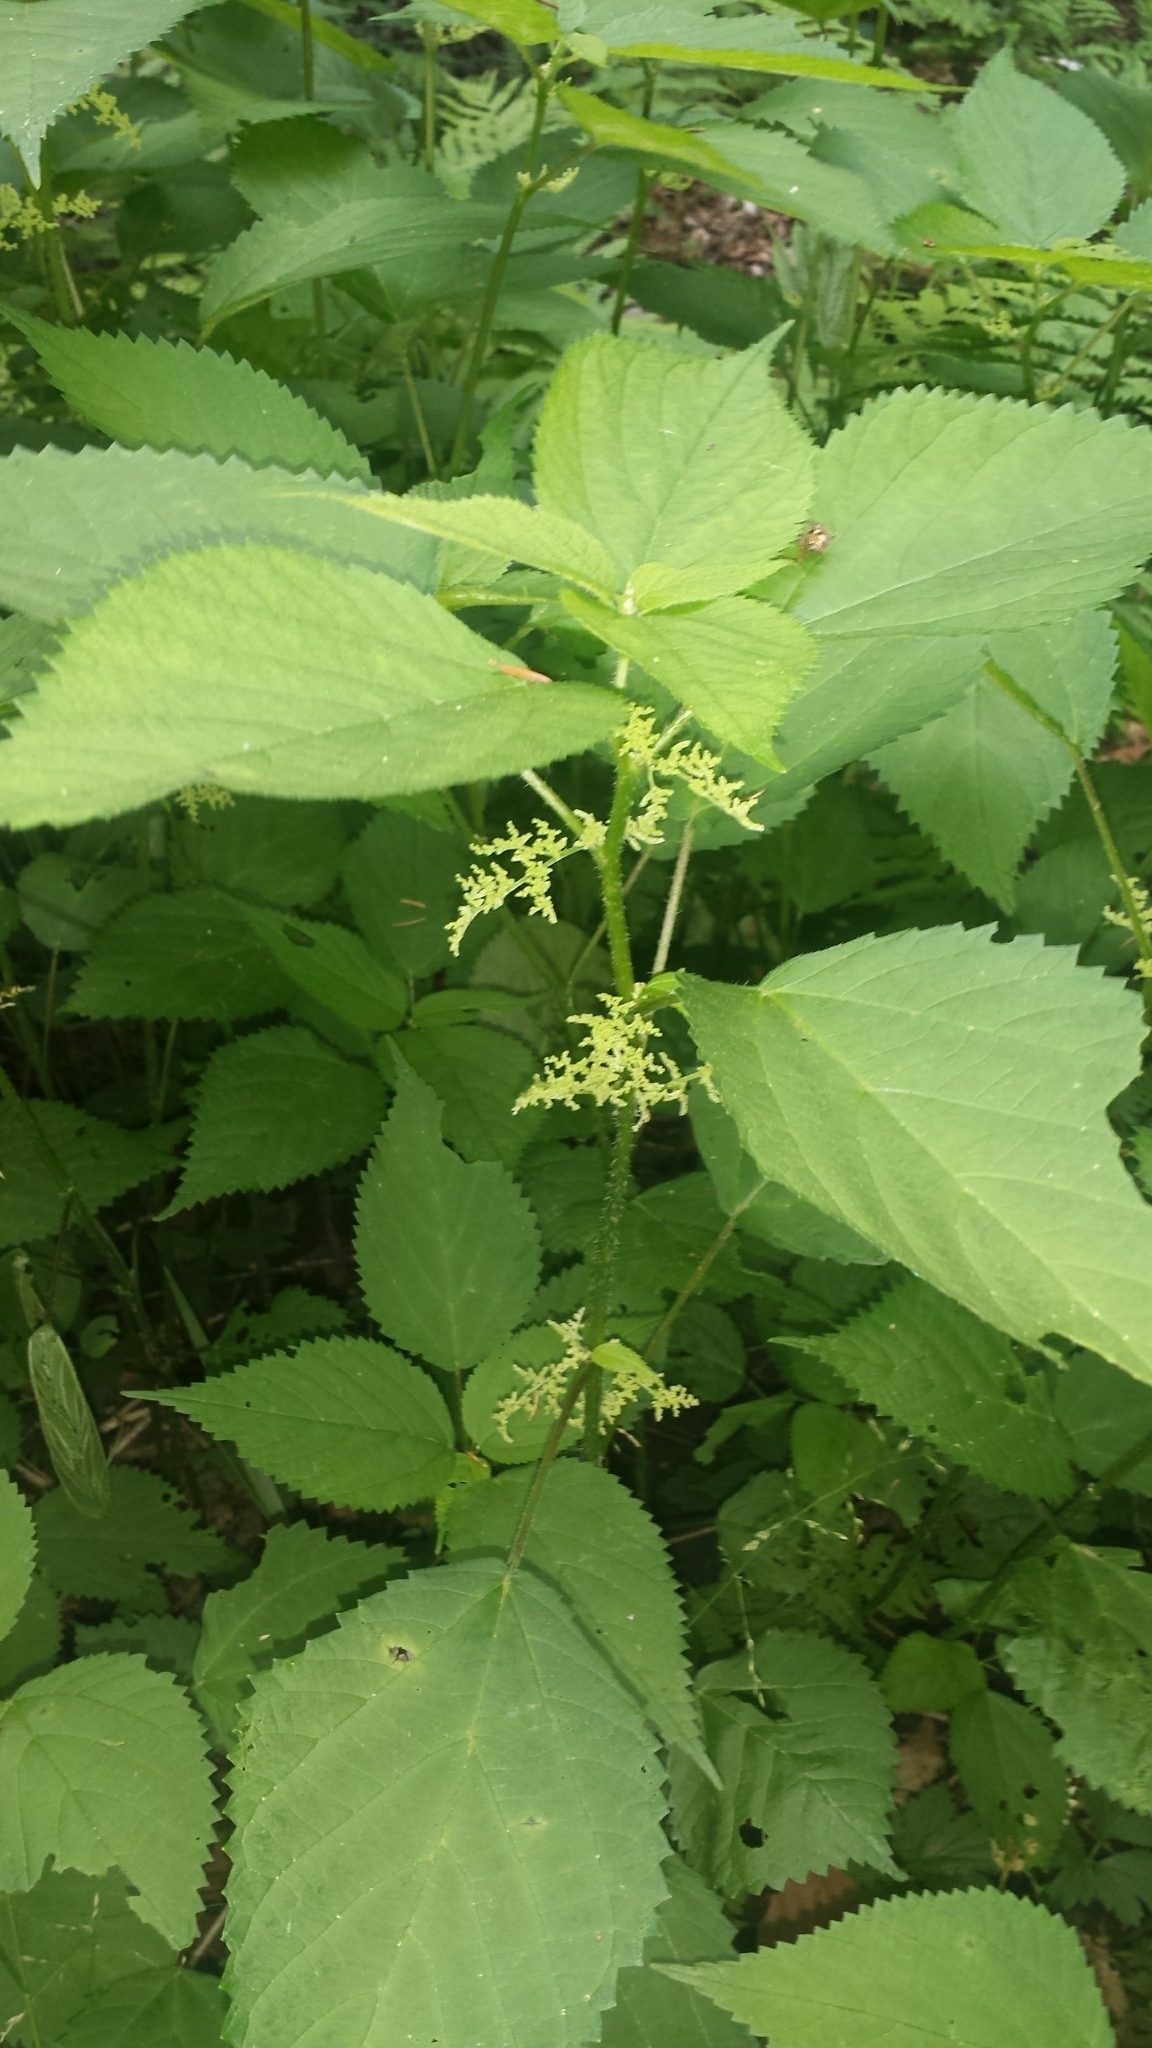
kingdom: Plantae
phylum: Tracheophyta
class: Magnoliopsida
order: Rosales
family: Urticaceae
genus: Laportea
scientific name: Laportea canadensis
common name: Canada nettle
